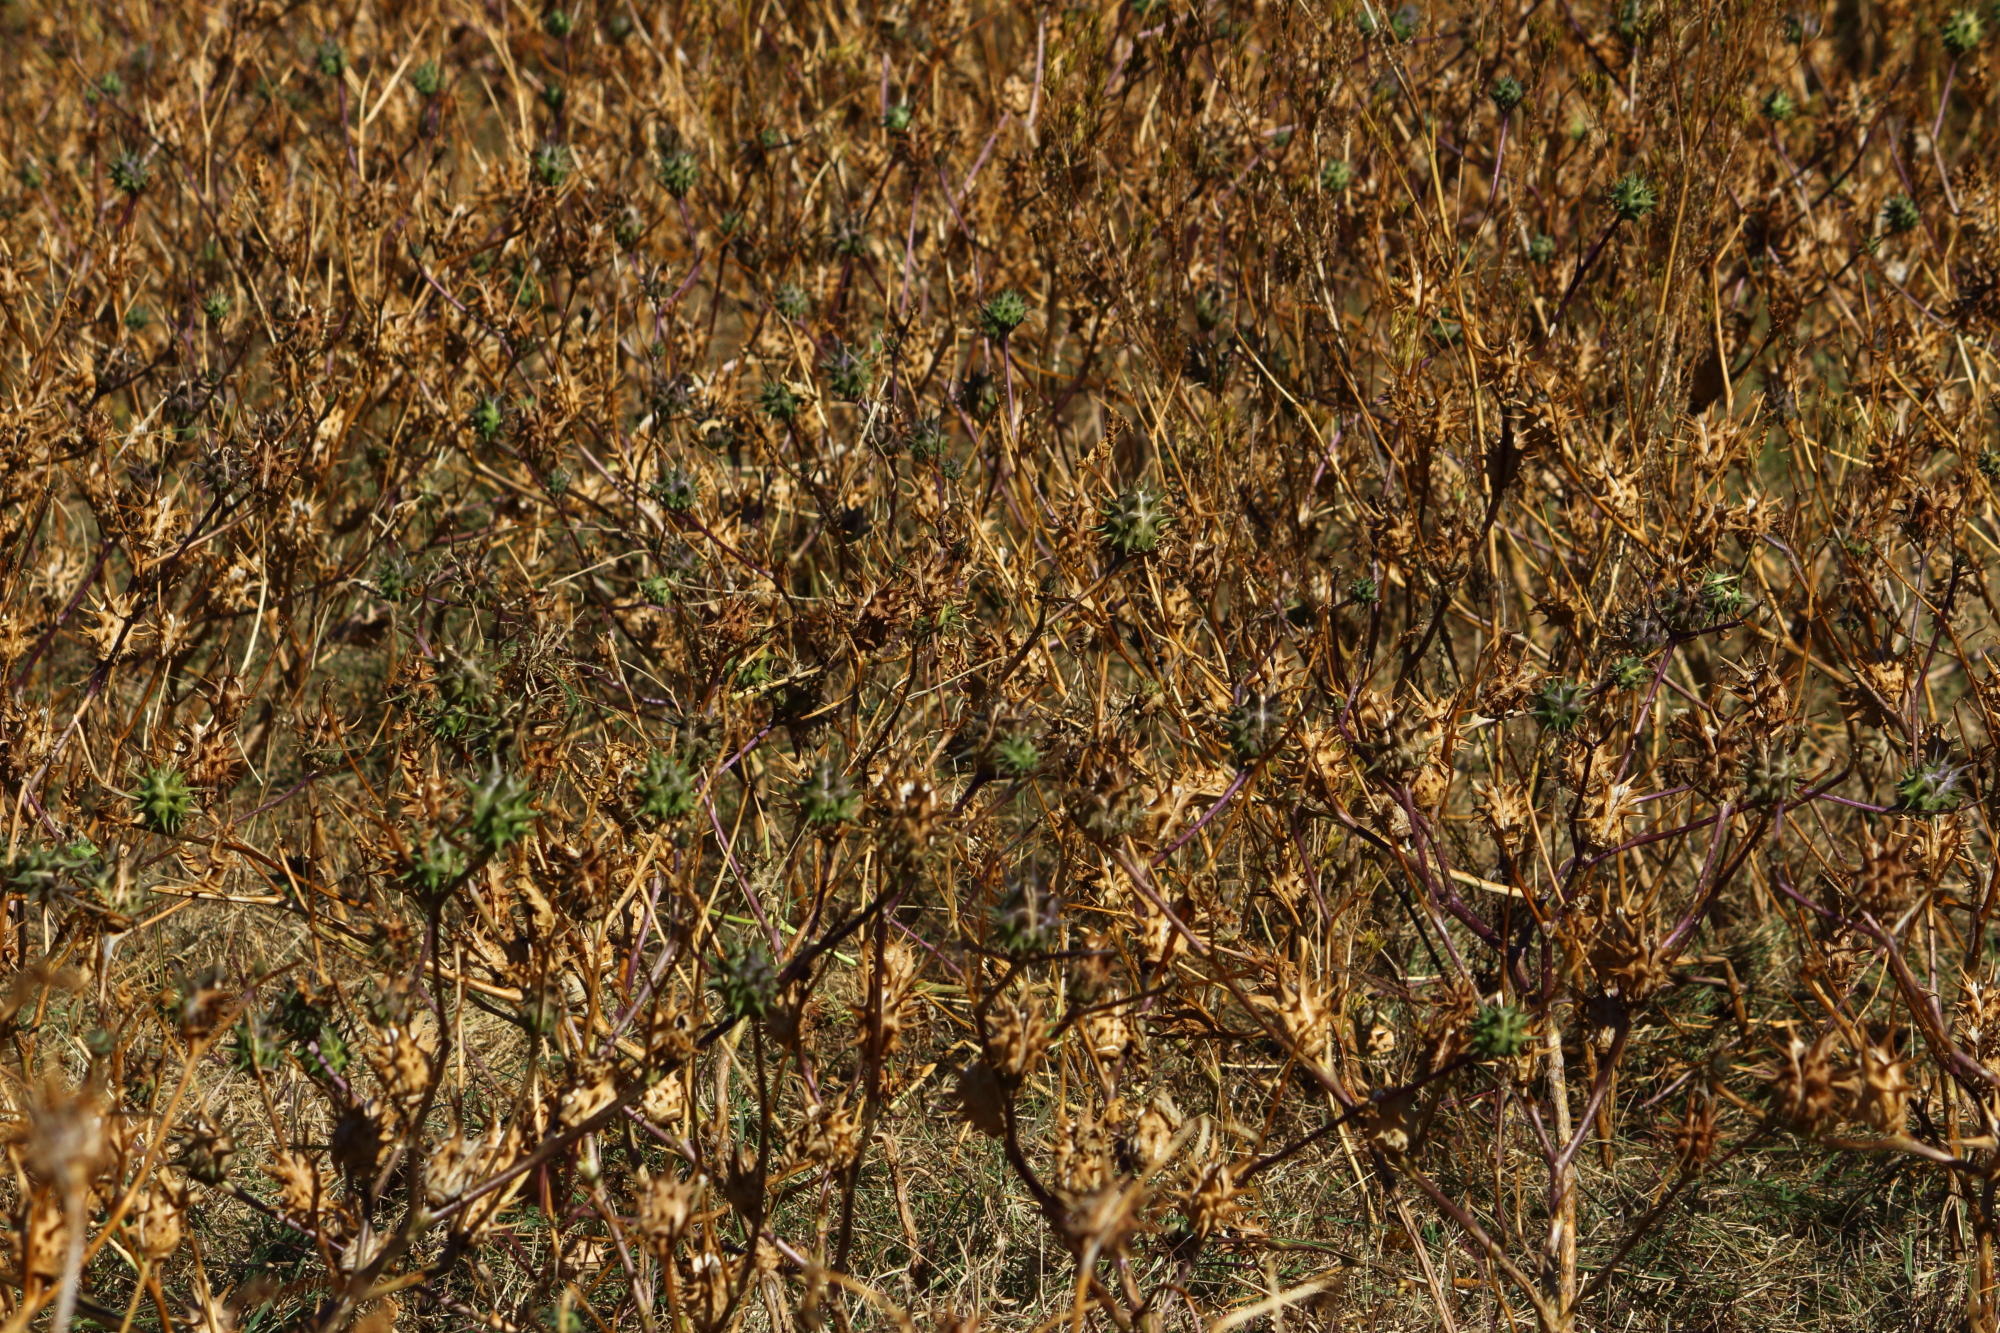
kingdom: Plantae
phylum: Tracheophyta
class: Magnoliopsida
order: Solanales
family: Solanaceae
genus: Datura
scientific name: Datura ferox
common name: Angel's-trumpets
